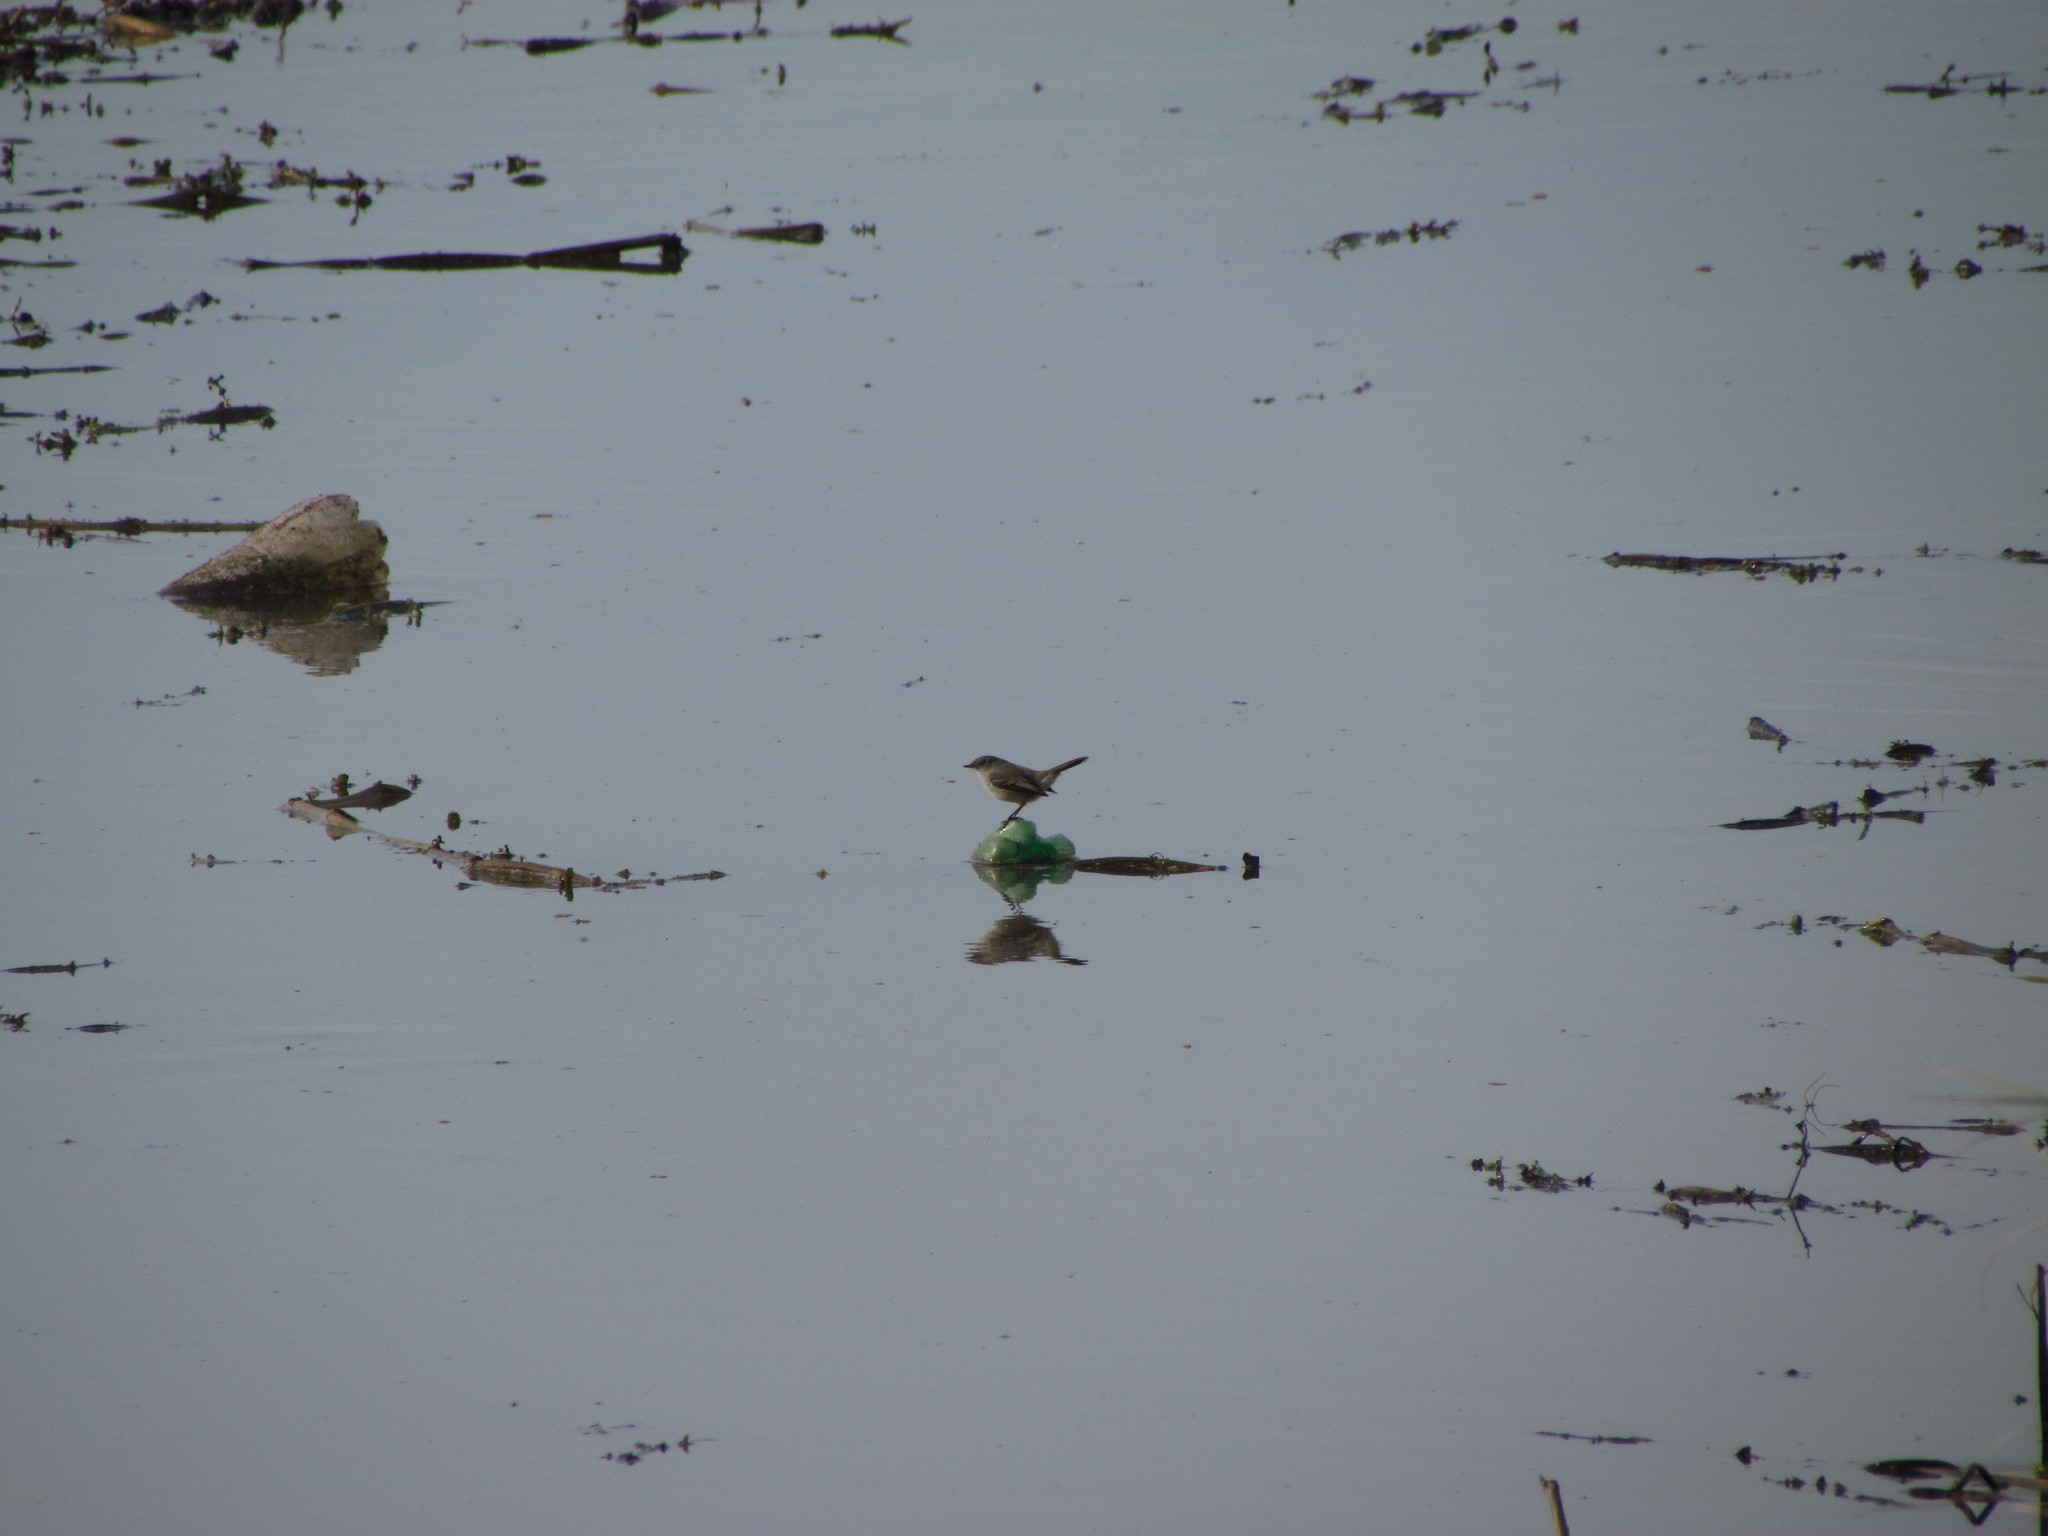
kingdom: Animalia
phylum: Chordata
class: Aves
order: Passeriformes
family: Tyrannidae
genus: Serpophaga
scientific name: Serpophaga nigricans
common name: Sooty tyrannulet
